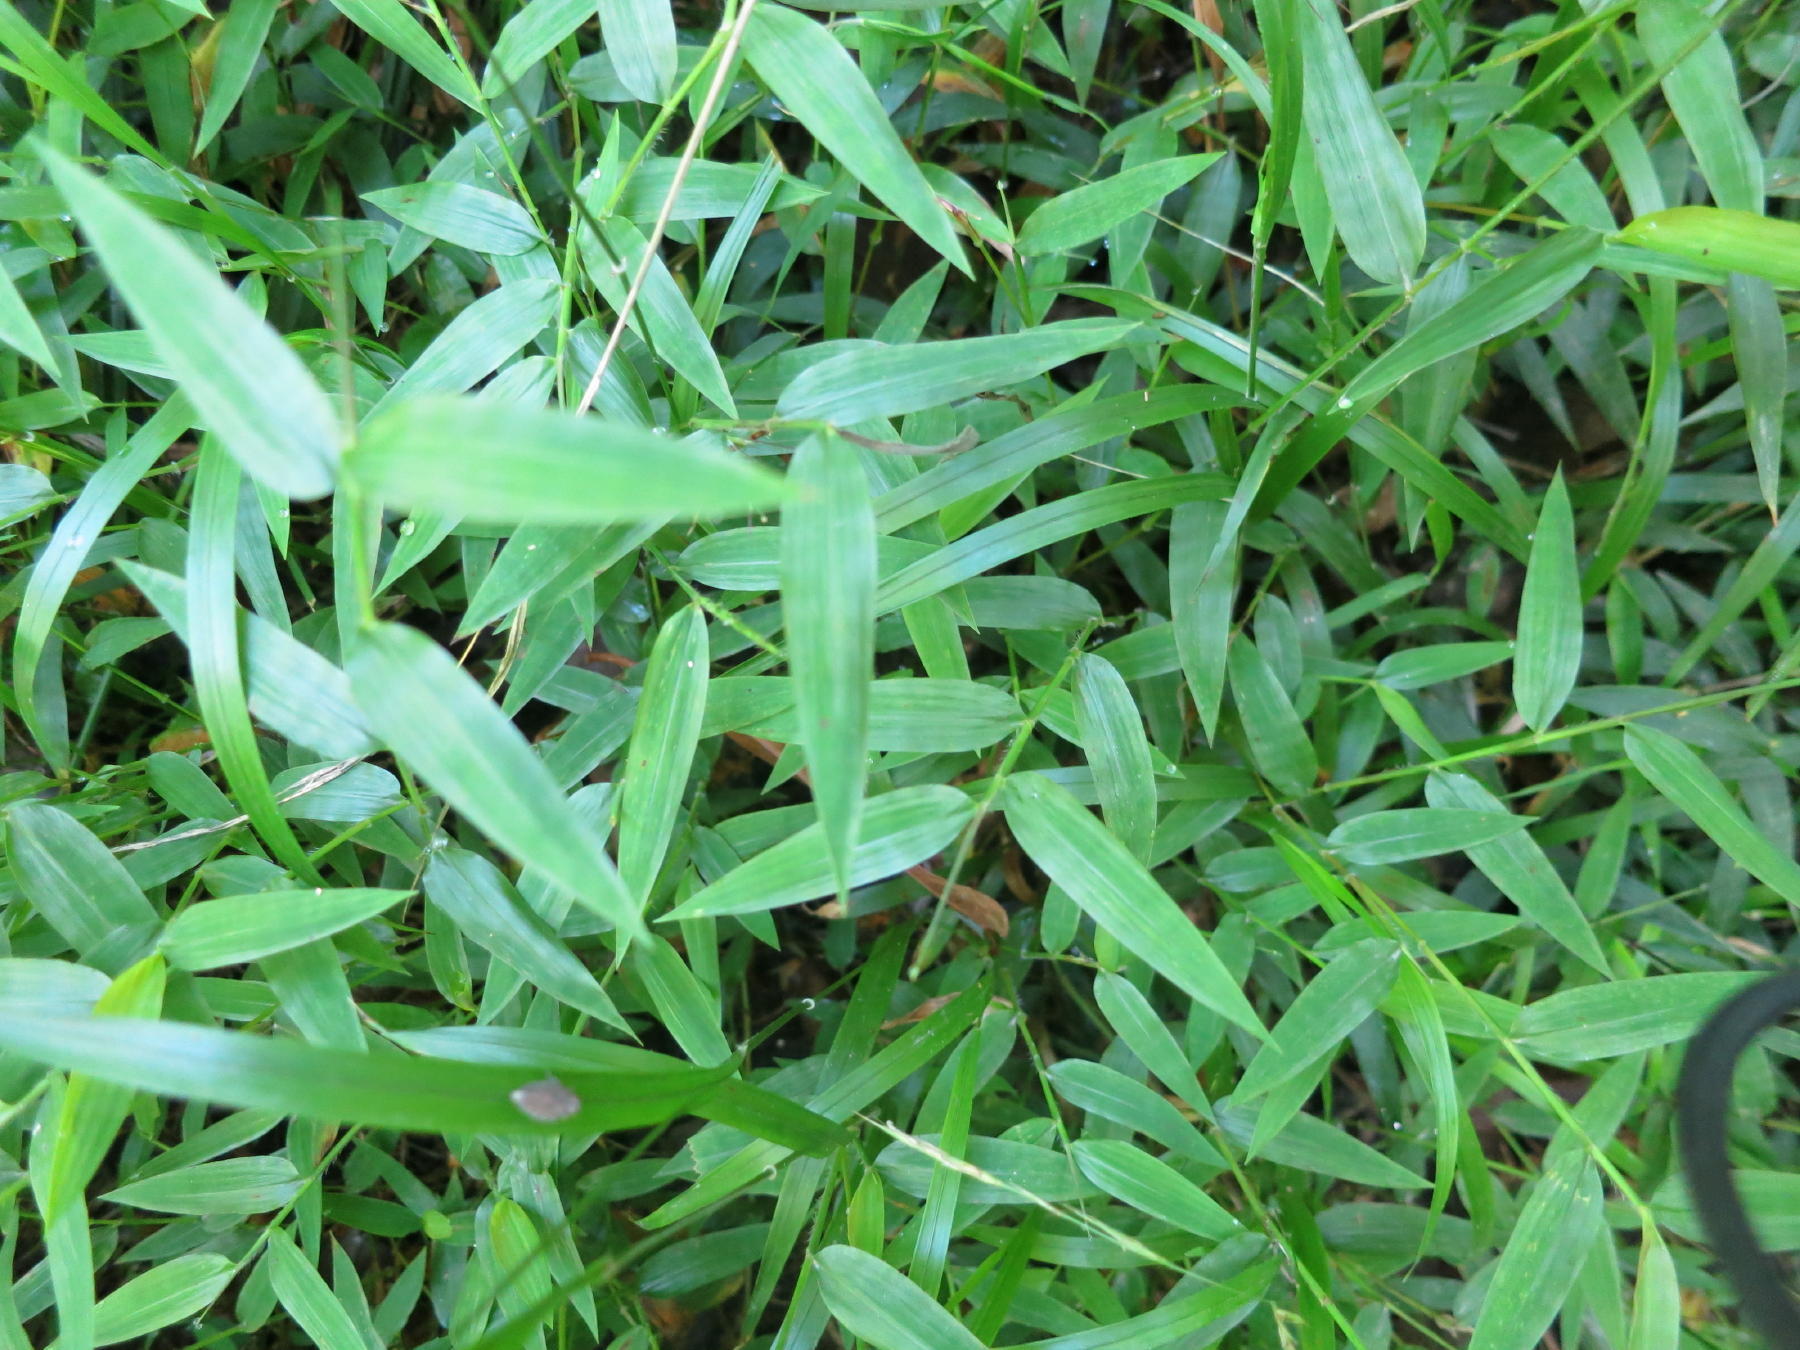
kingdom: Plantae
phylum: Tracheophyta
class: Liliopsida
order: Poales
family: Poaceae
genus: Oplismenus
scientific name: Oplismenus hirtellus
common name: Basketgrass
